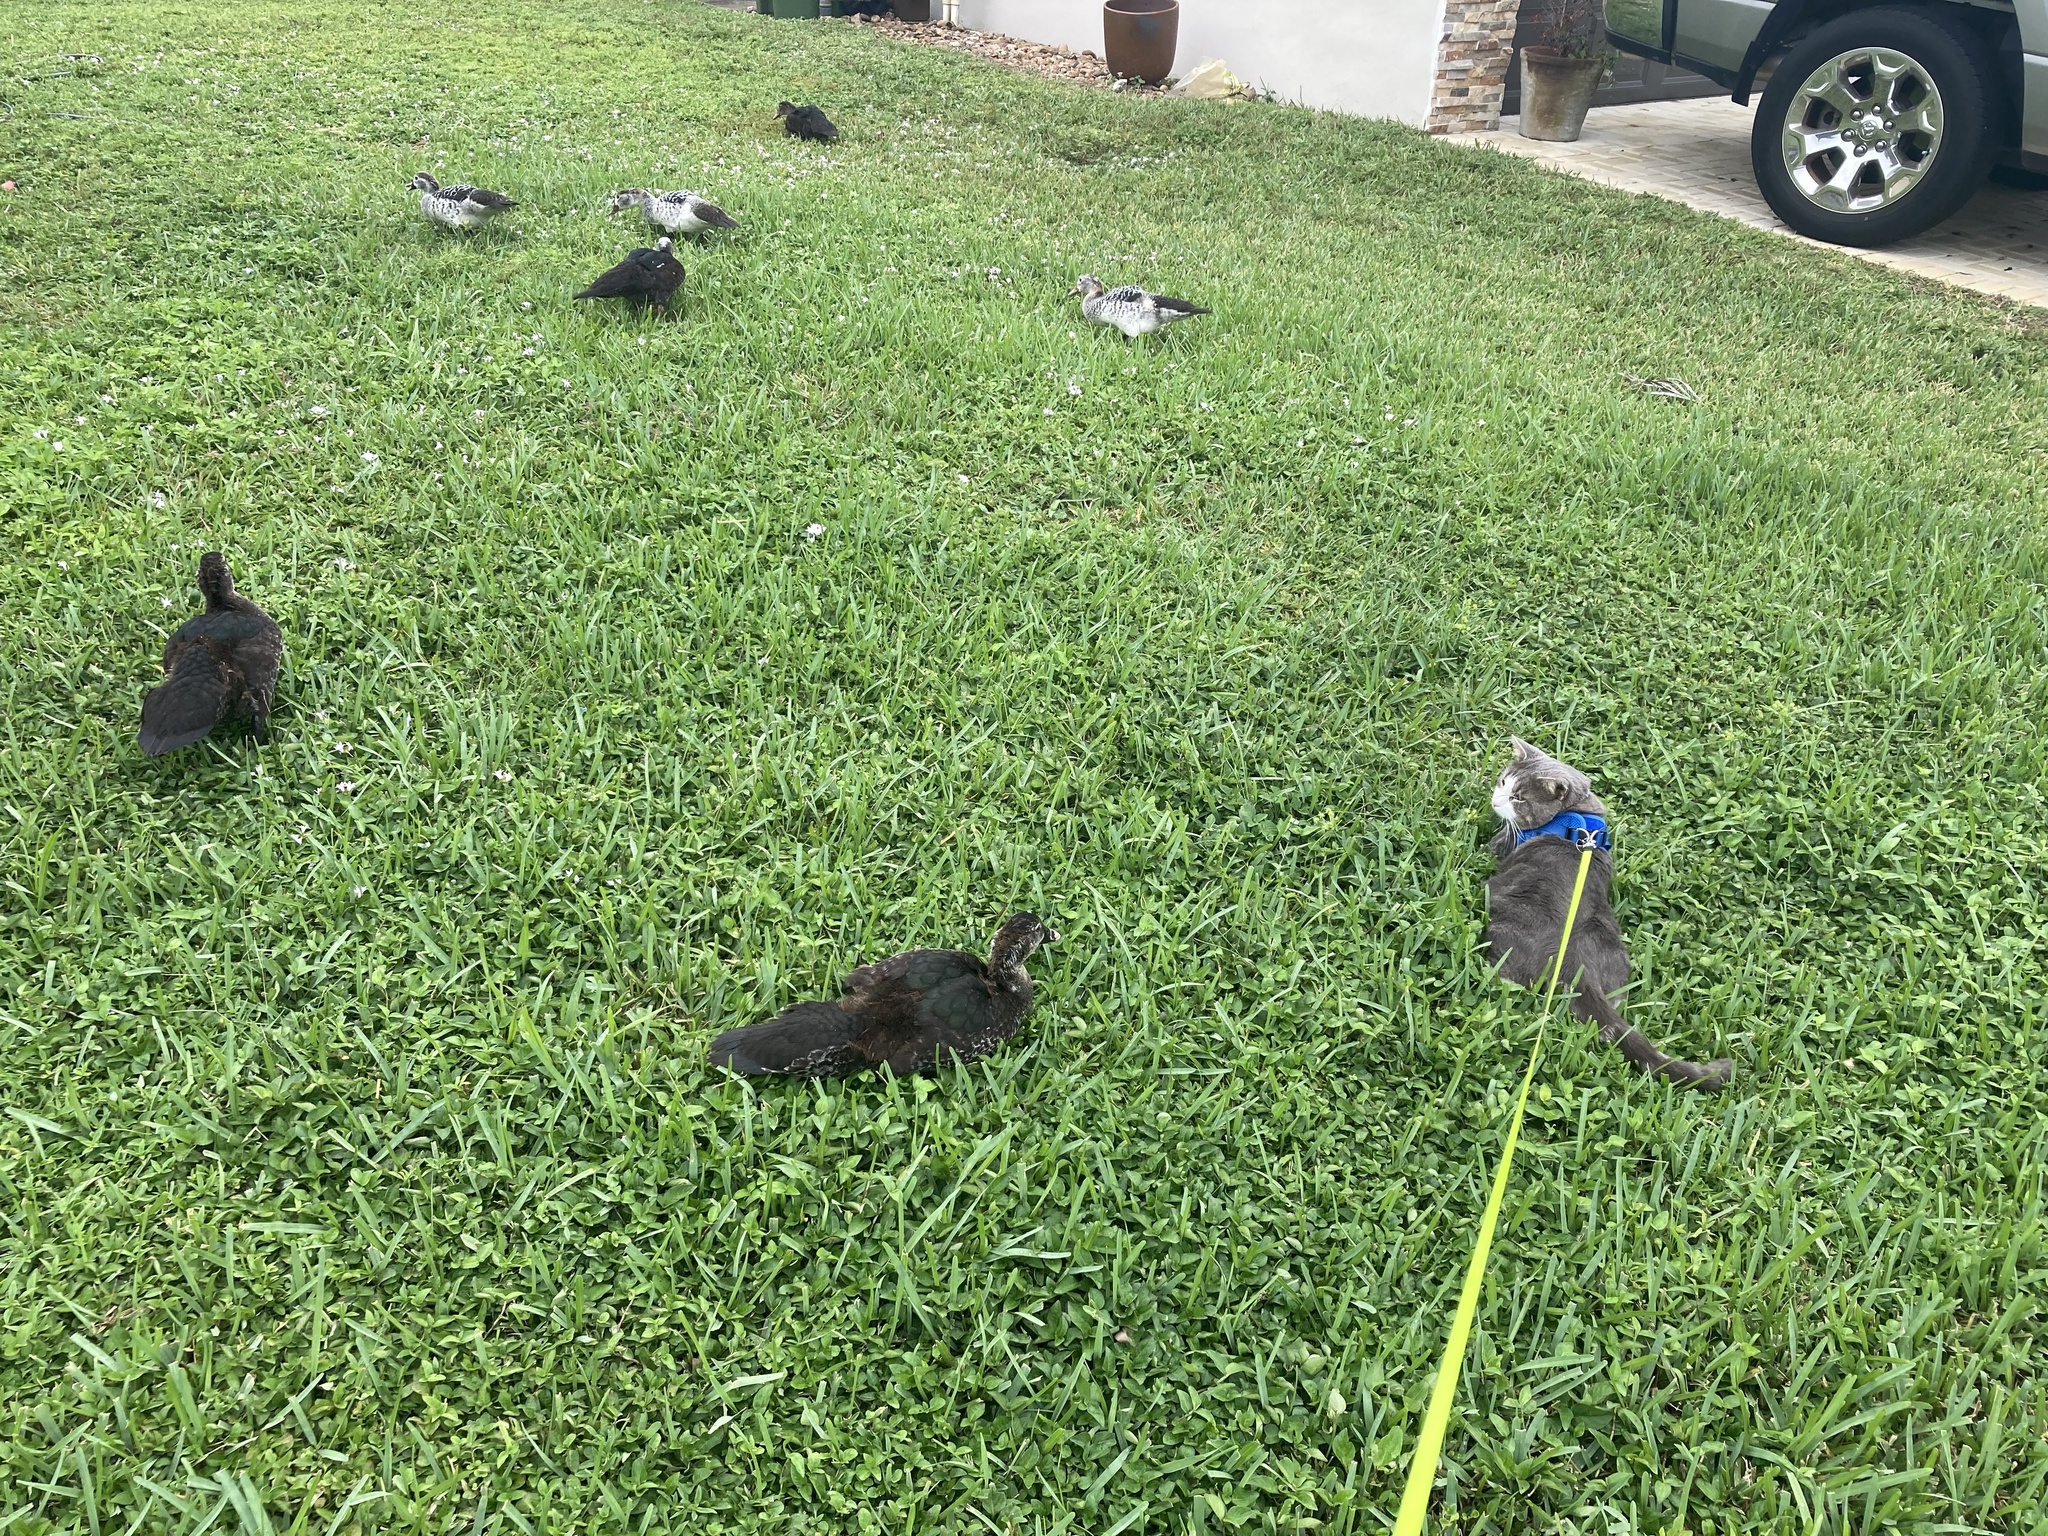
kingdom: Animalia
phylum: Chordata
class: Aves
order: Anseriformes
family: Anatidae
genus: Cairina
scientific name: Cairina moschata
